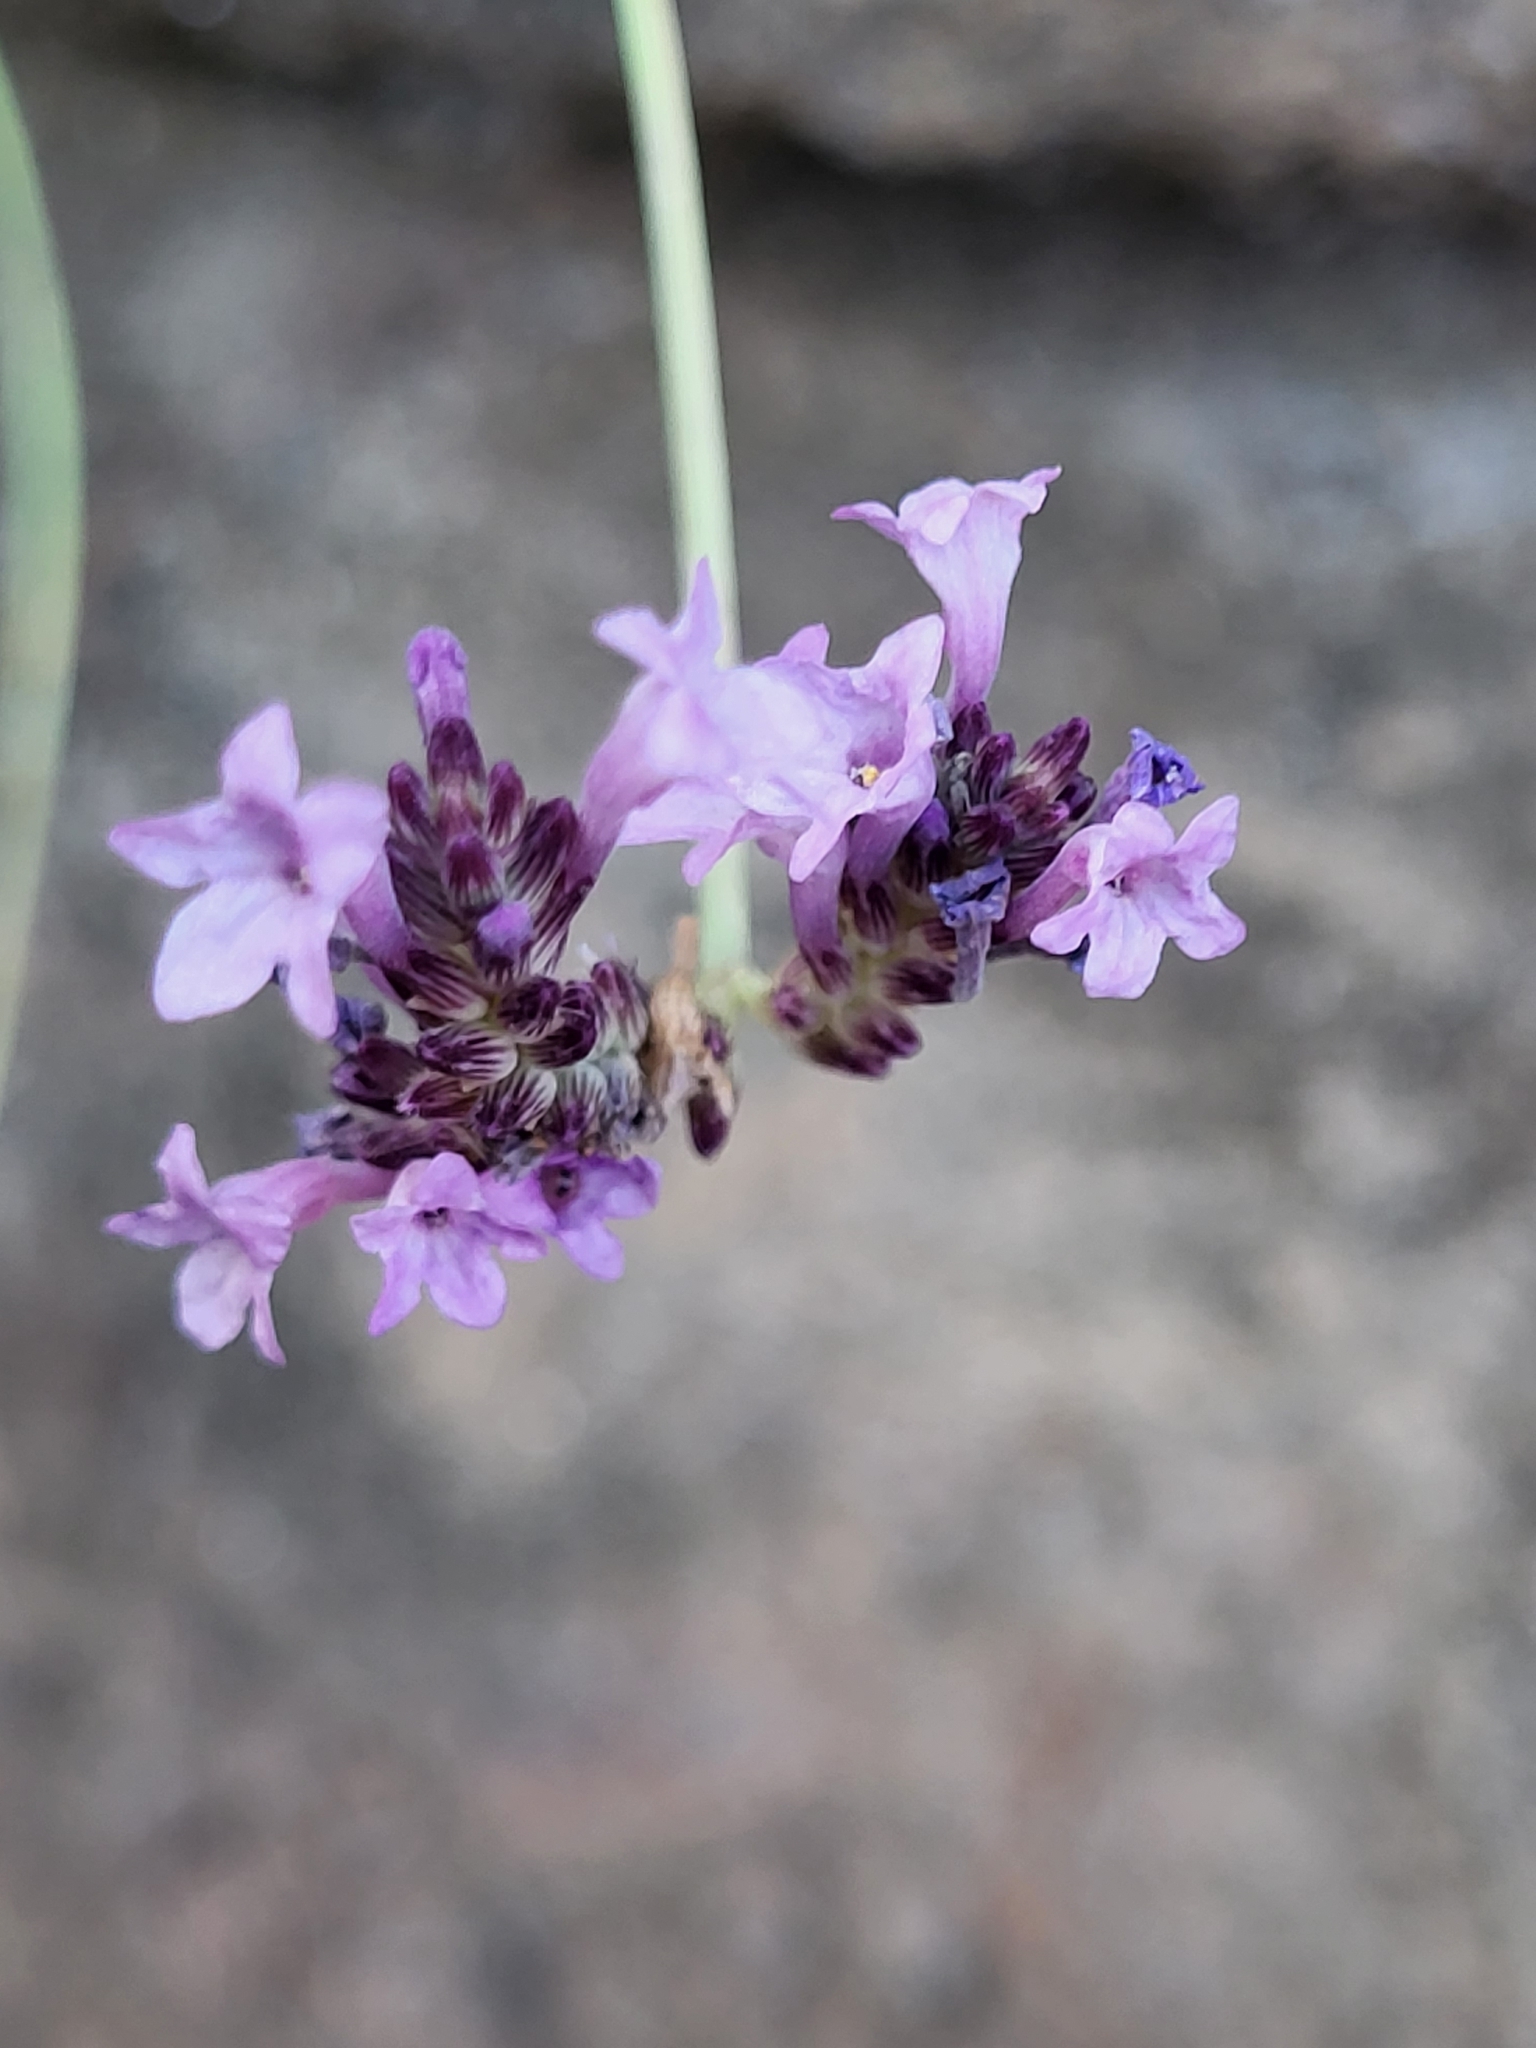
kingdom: Plantae
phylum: Tracheophyta
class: Magnoliopsida
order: Lamiales
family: Lamiaceae
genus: Lavandula
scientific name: Lavandula rotundifolia
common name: Round-leaf lavender
